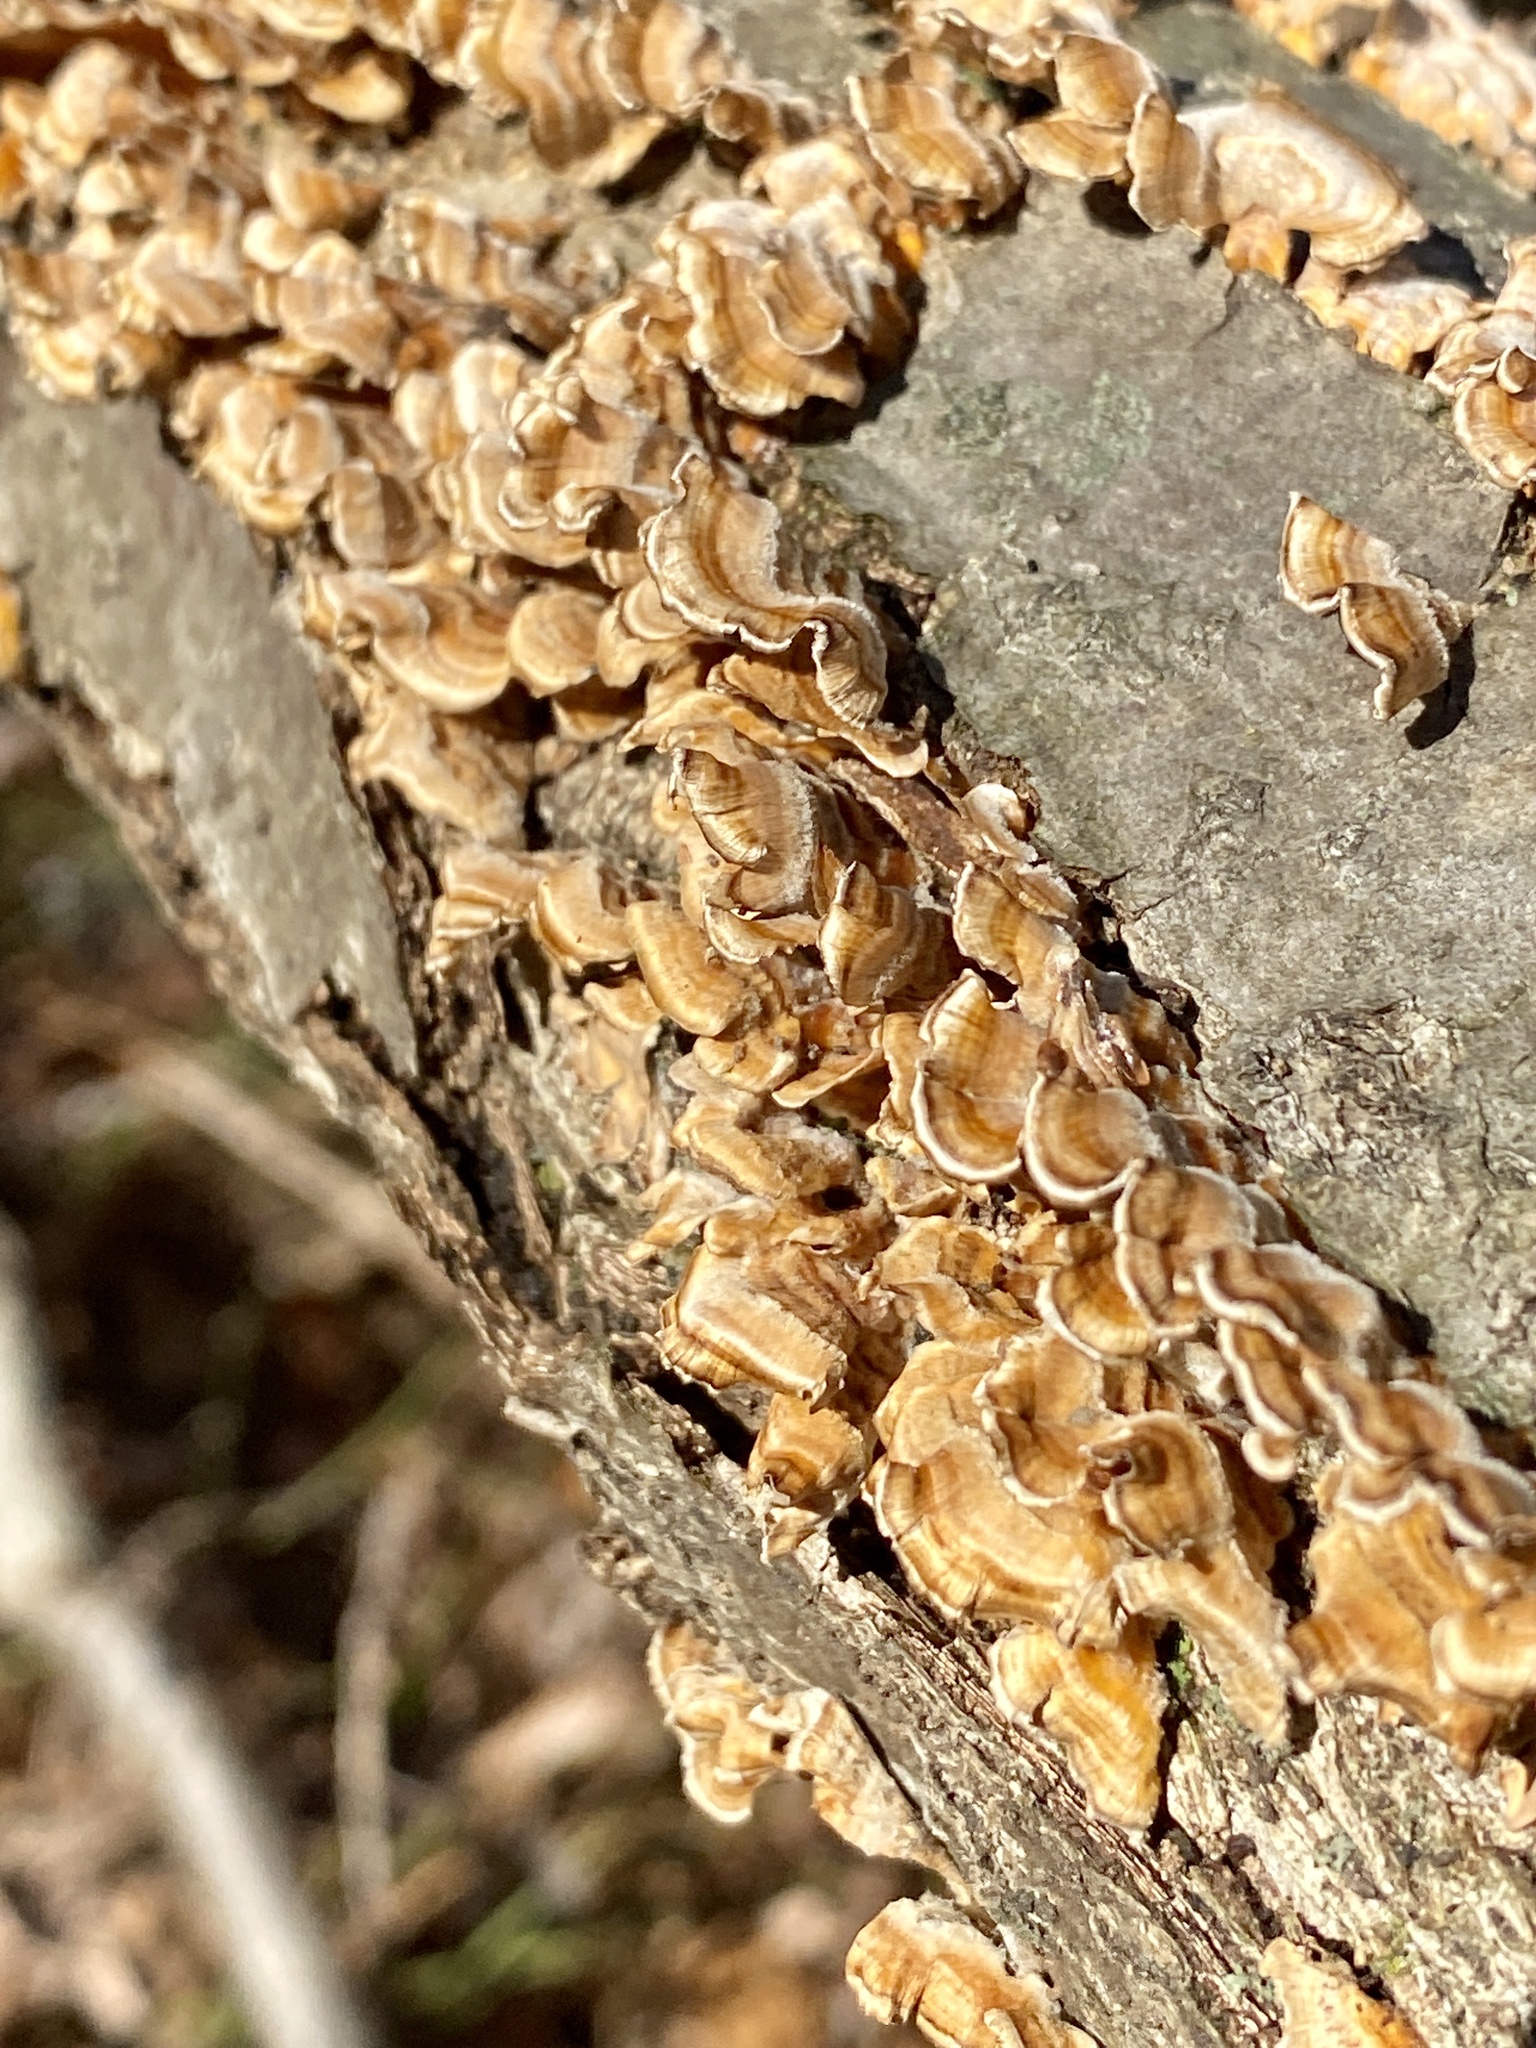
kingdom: Fungi
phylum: Basidiomycota
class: Agaricomycetes
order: Russulales
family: Stereaceae
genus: Stereum
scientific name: Stereum complicatum
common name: Crowded parchment
